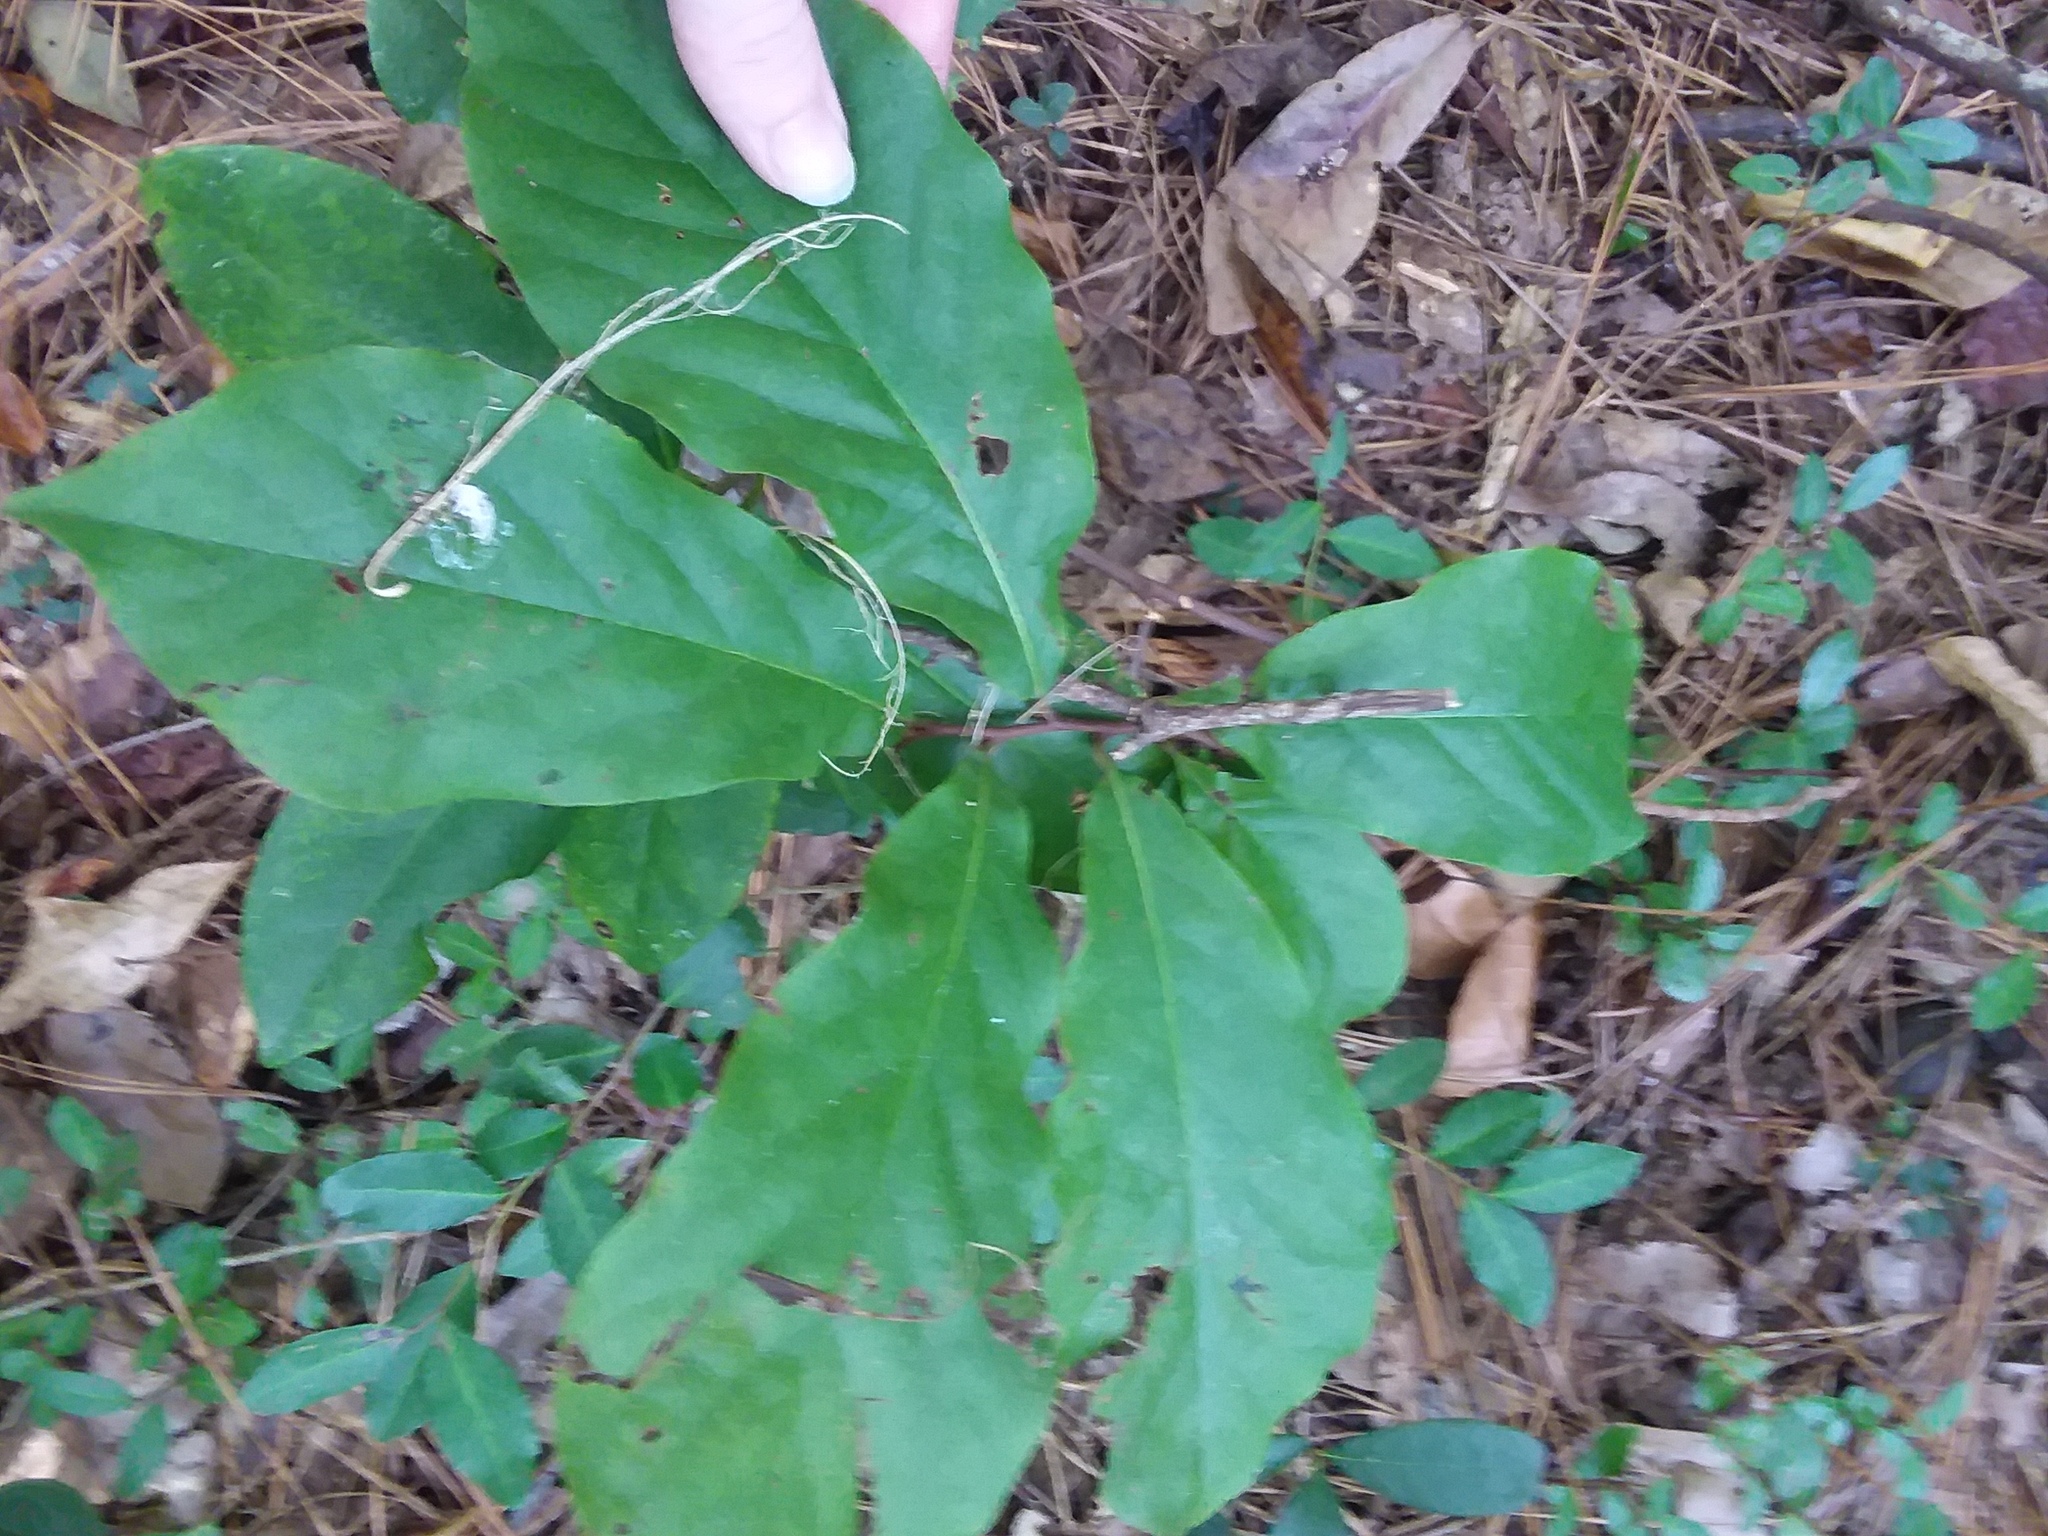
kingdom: Plantae
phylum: Tracheophyta
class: Magnoliopsida
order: Magnoliales
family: Annonaceae
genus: Asimina
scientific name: Asimina parviflora
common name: Dwarf pawpaw
